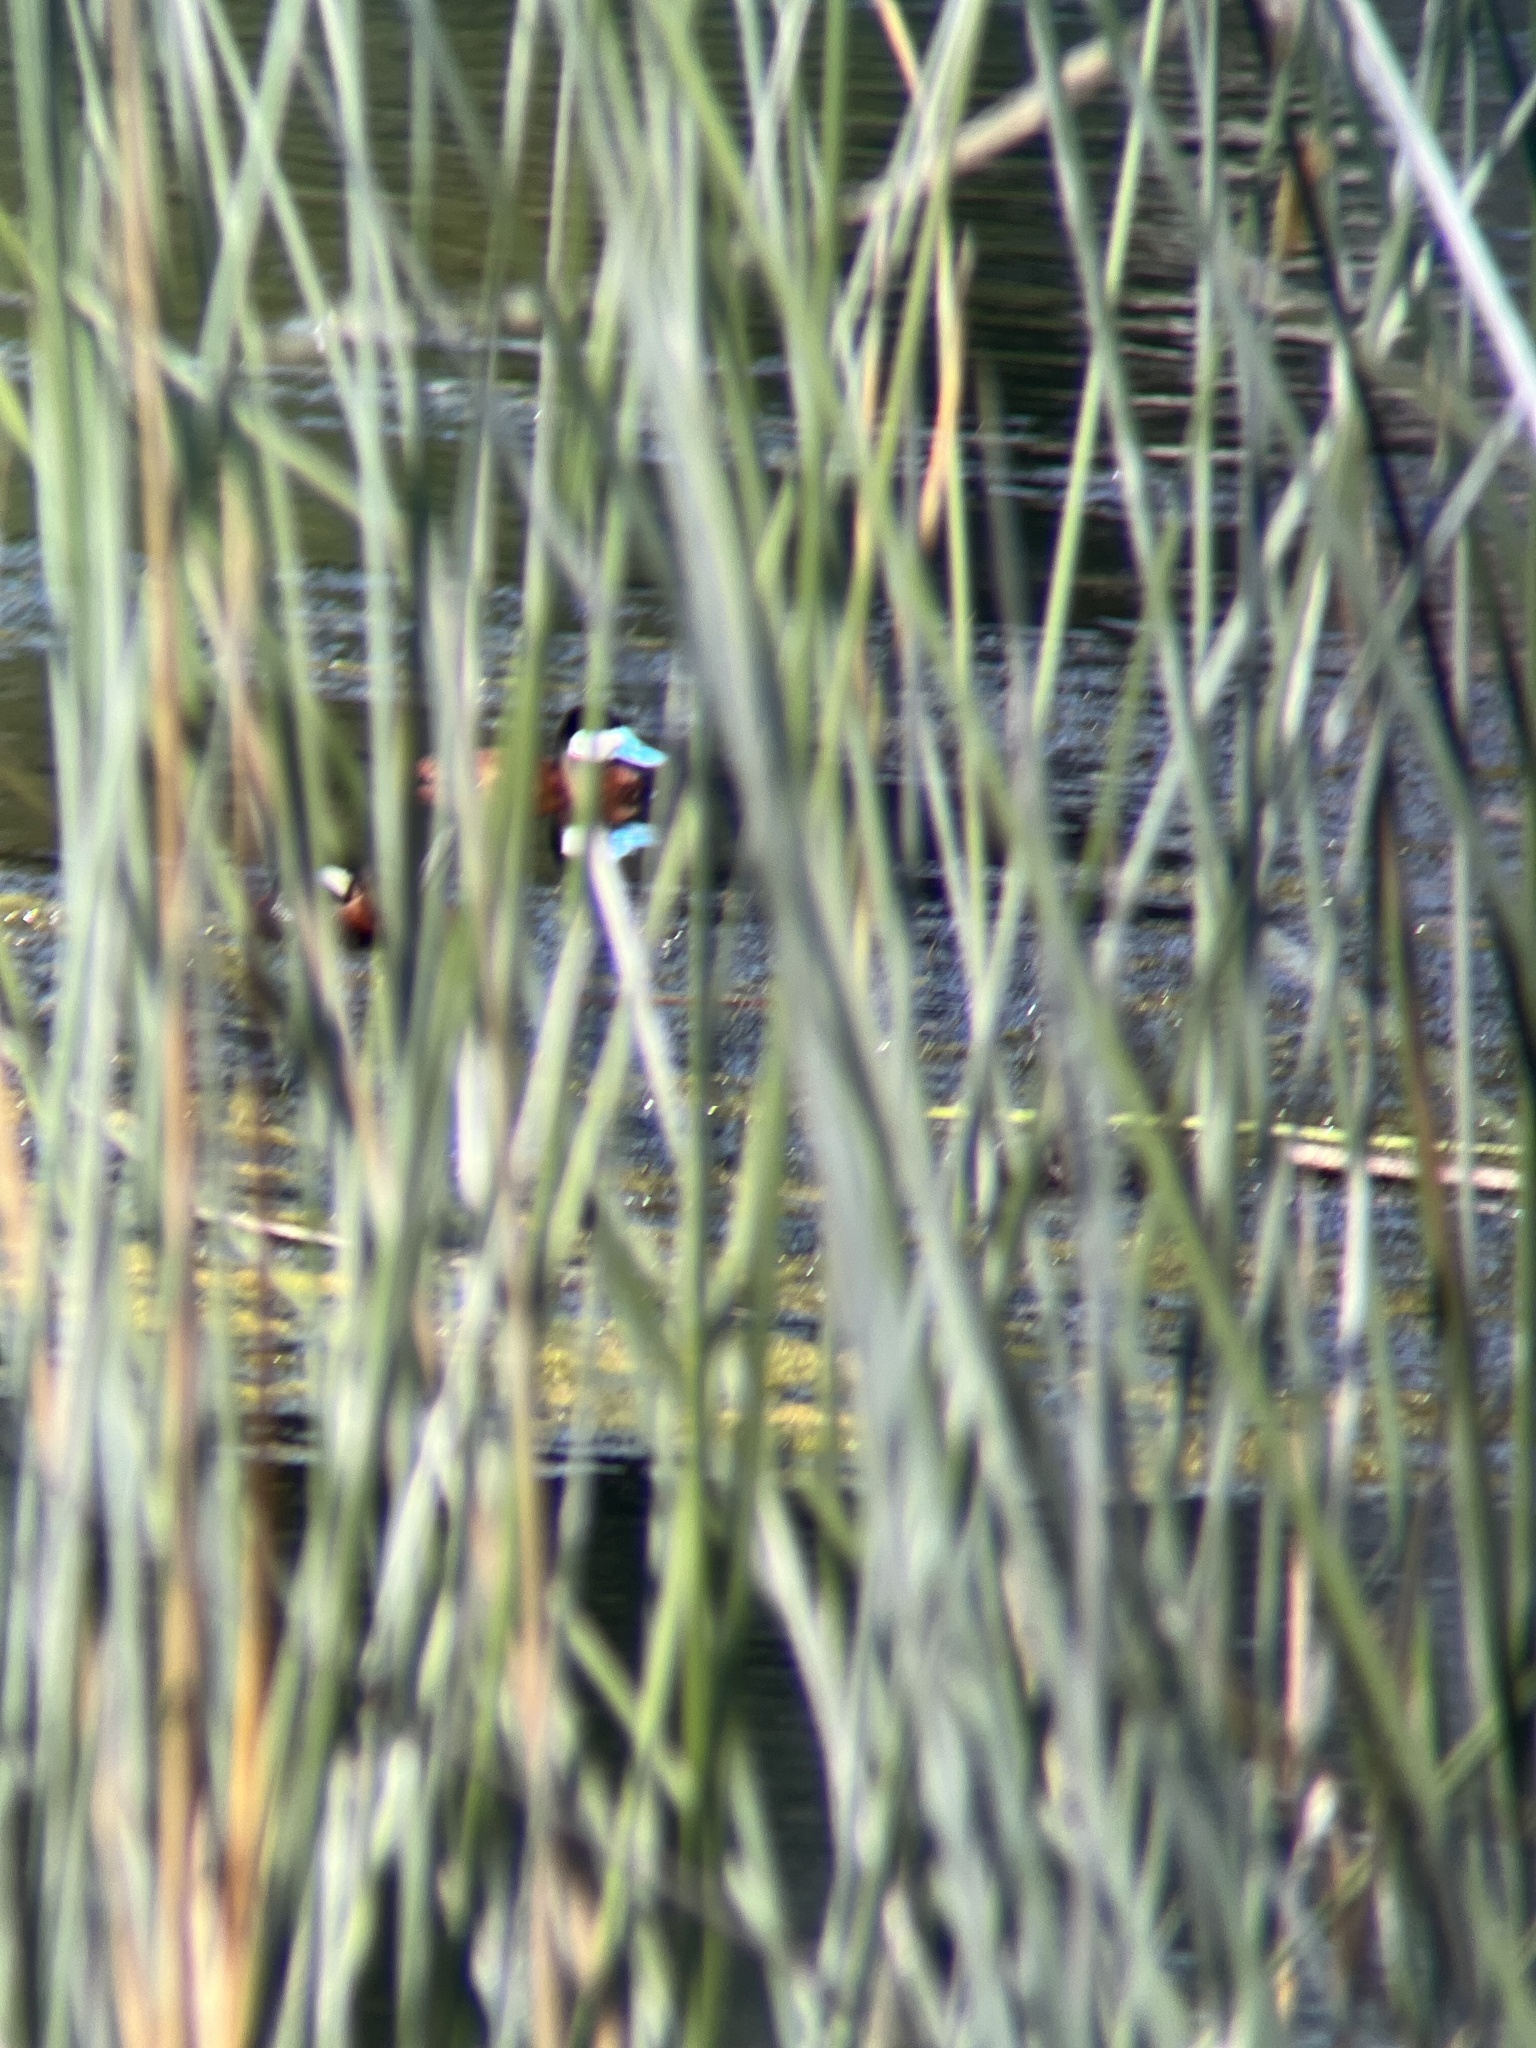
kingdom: Animalia
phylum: Chordata
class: Aves
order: Anseriformes
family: Anatidae
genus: Oxyura
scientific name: Oxyura jamaicensis
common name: Ruddy duck
